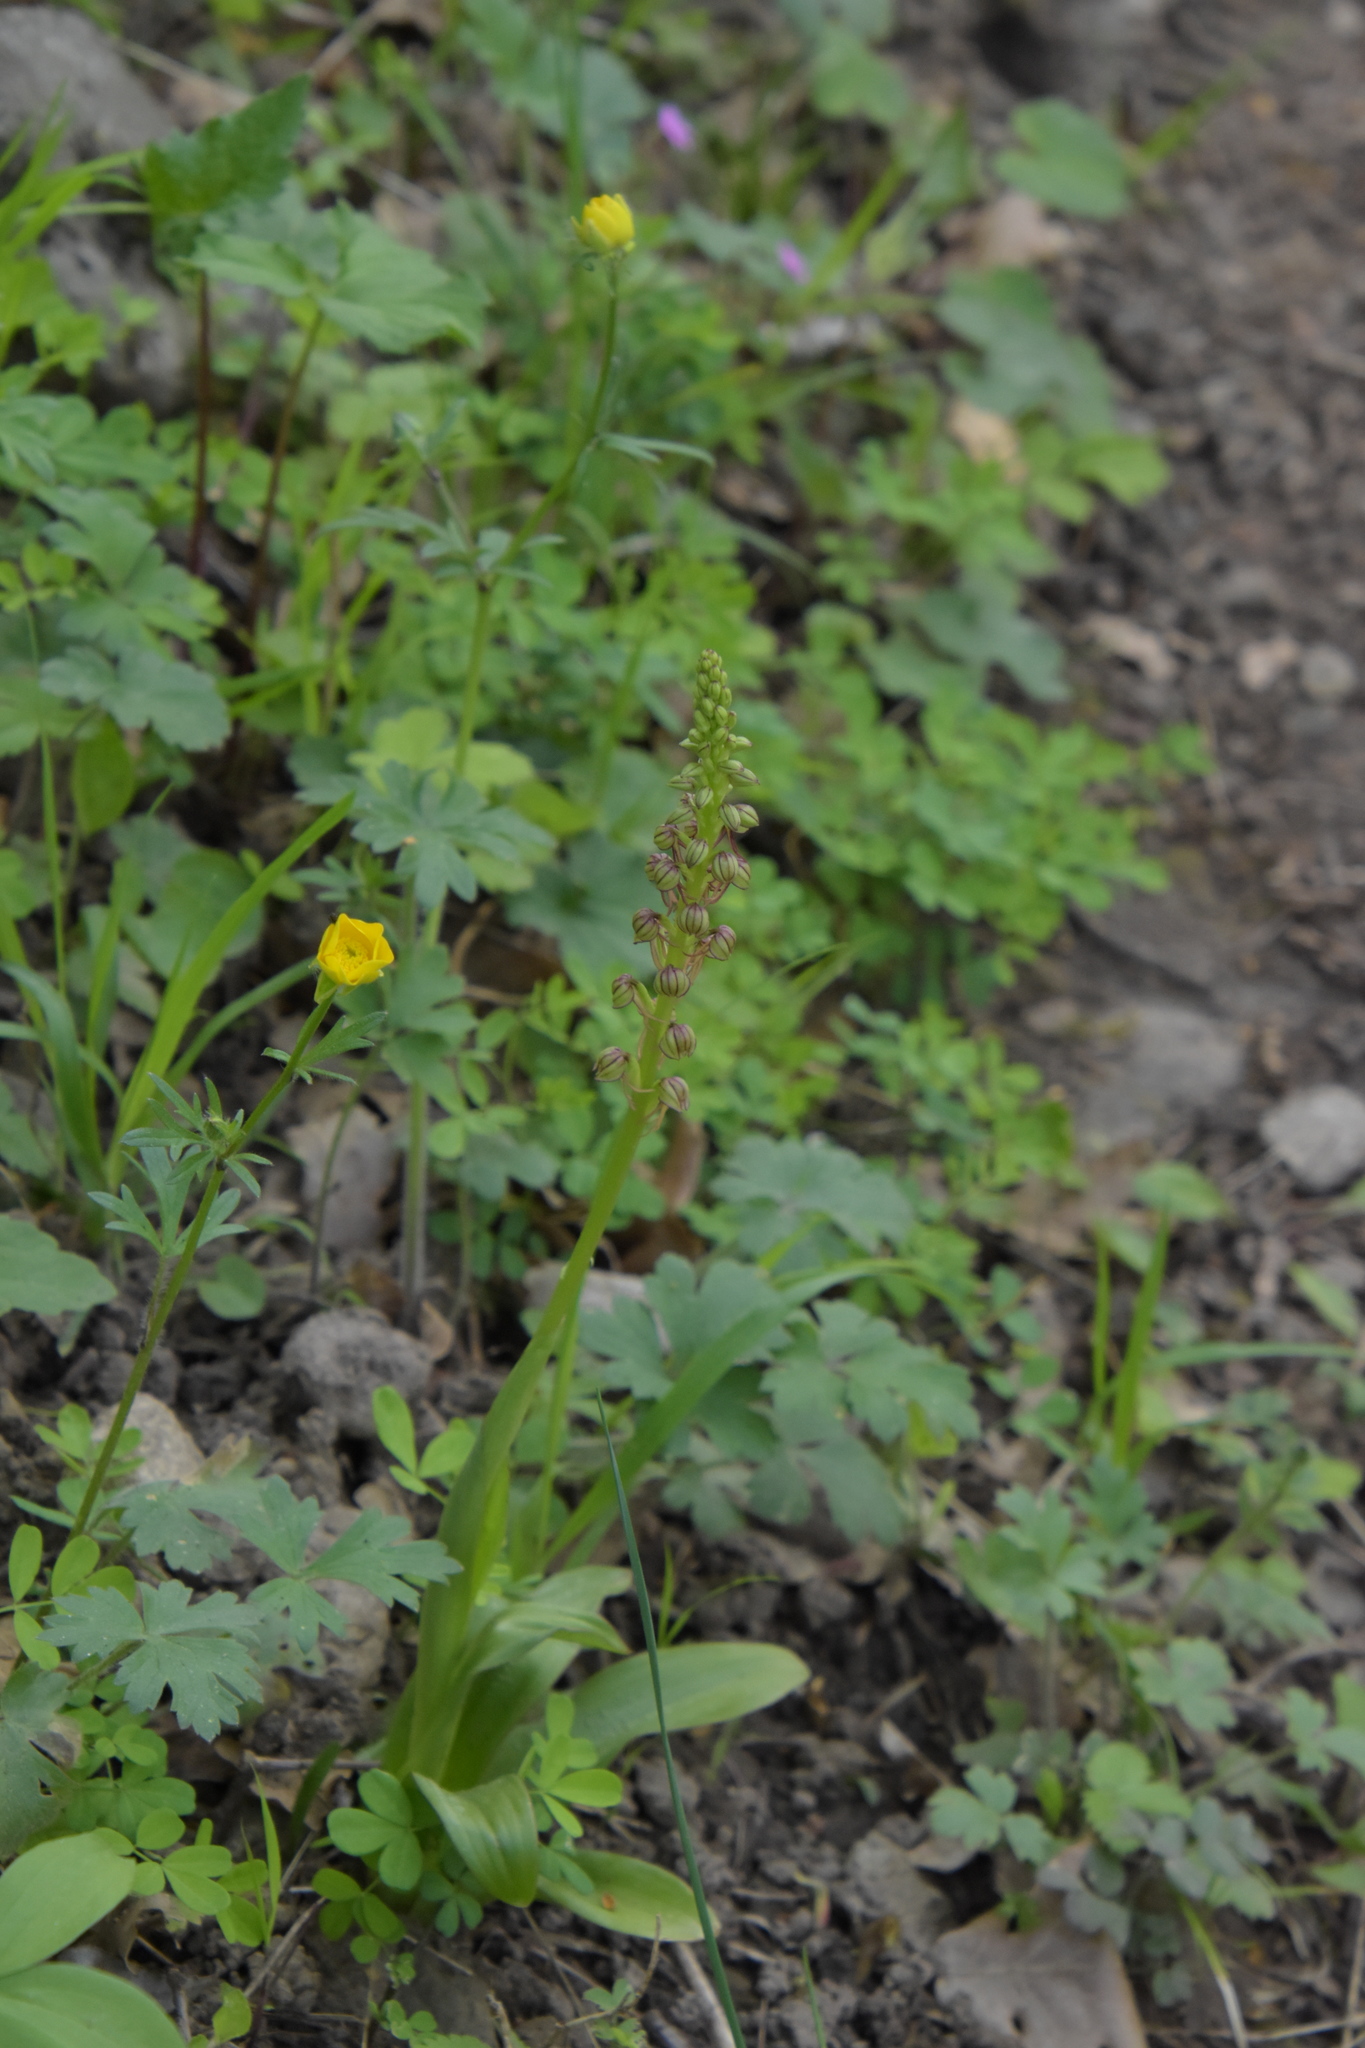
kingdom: Plantae
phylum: Tracheophyta
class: Liliopsida
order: Asparagales
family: Orchidaceae
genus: Orchis
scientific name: Orchis anthropophora
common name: Man orchid
